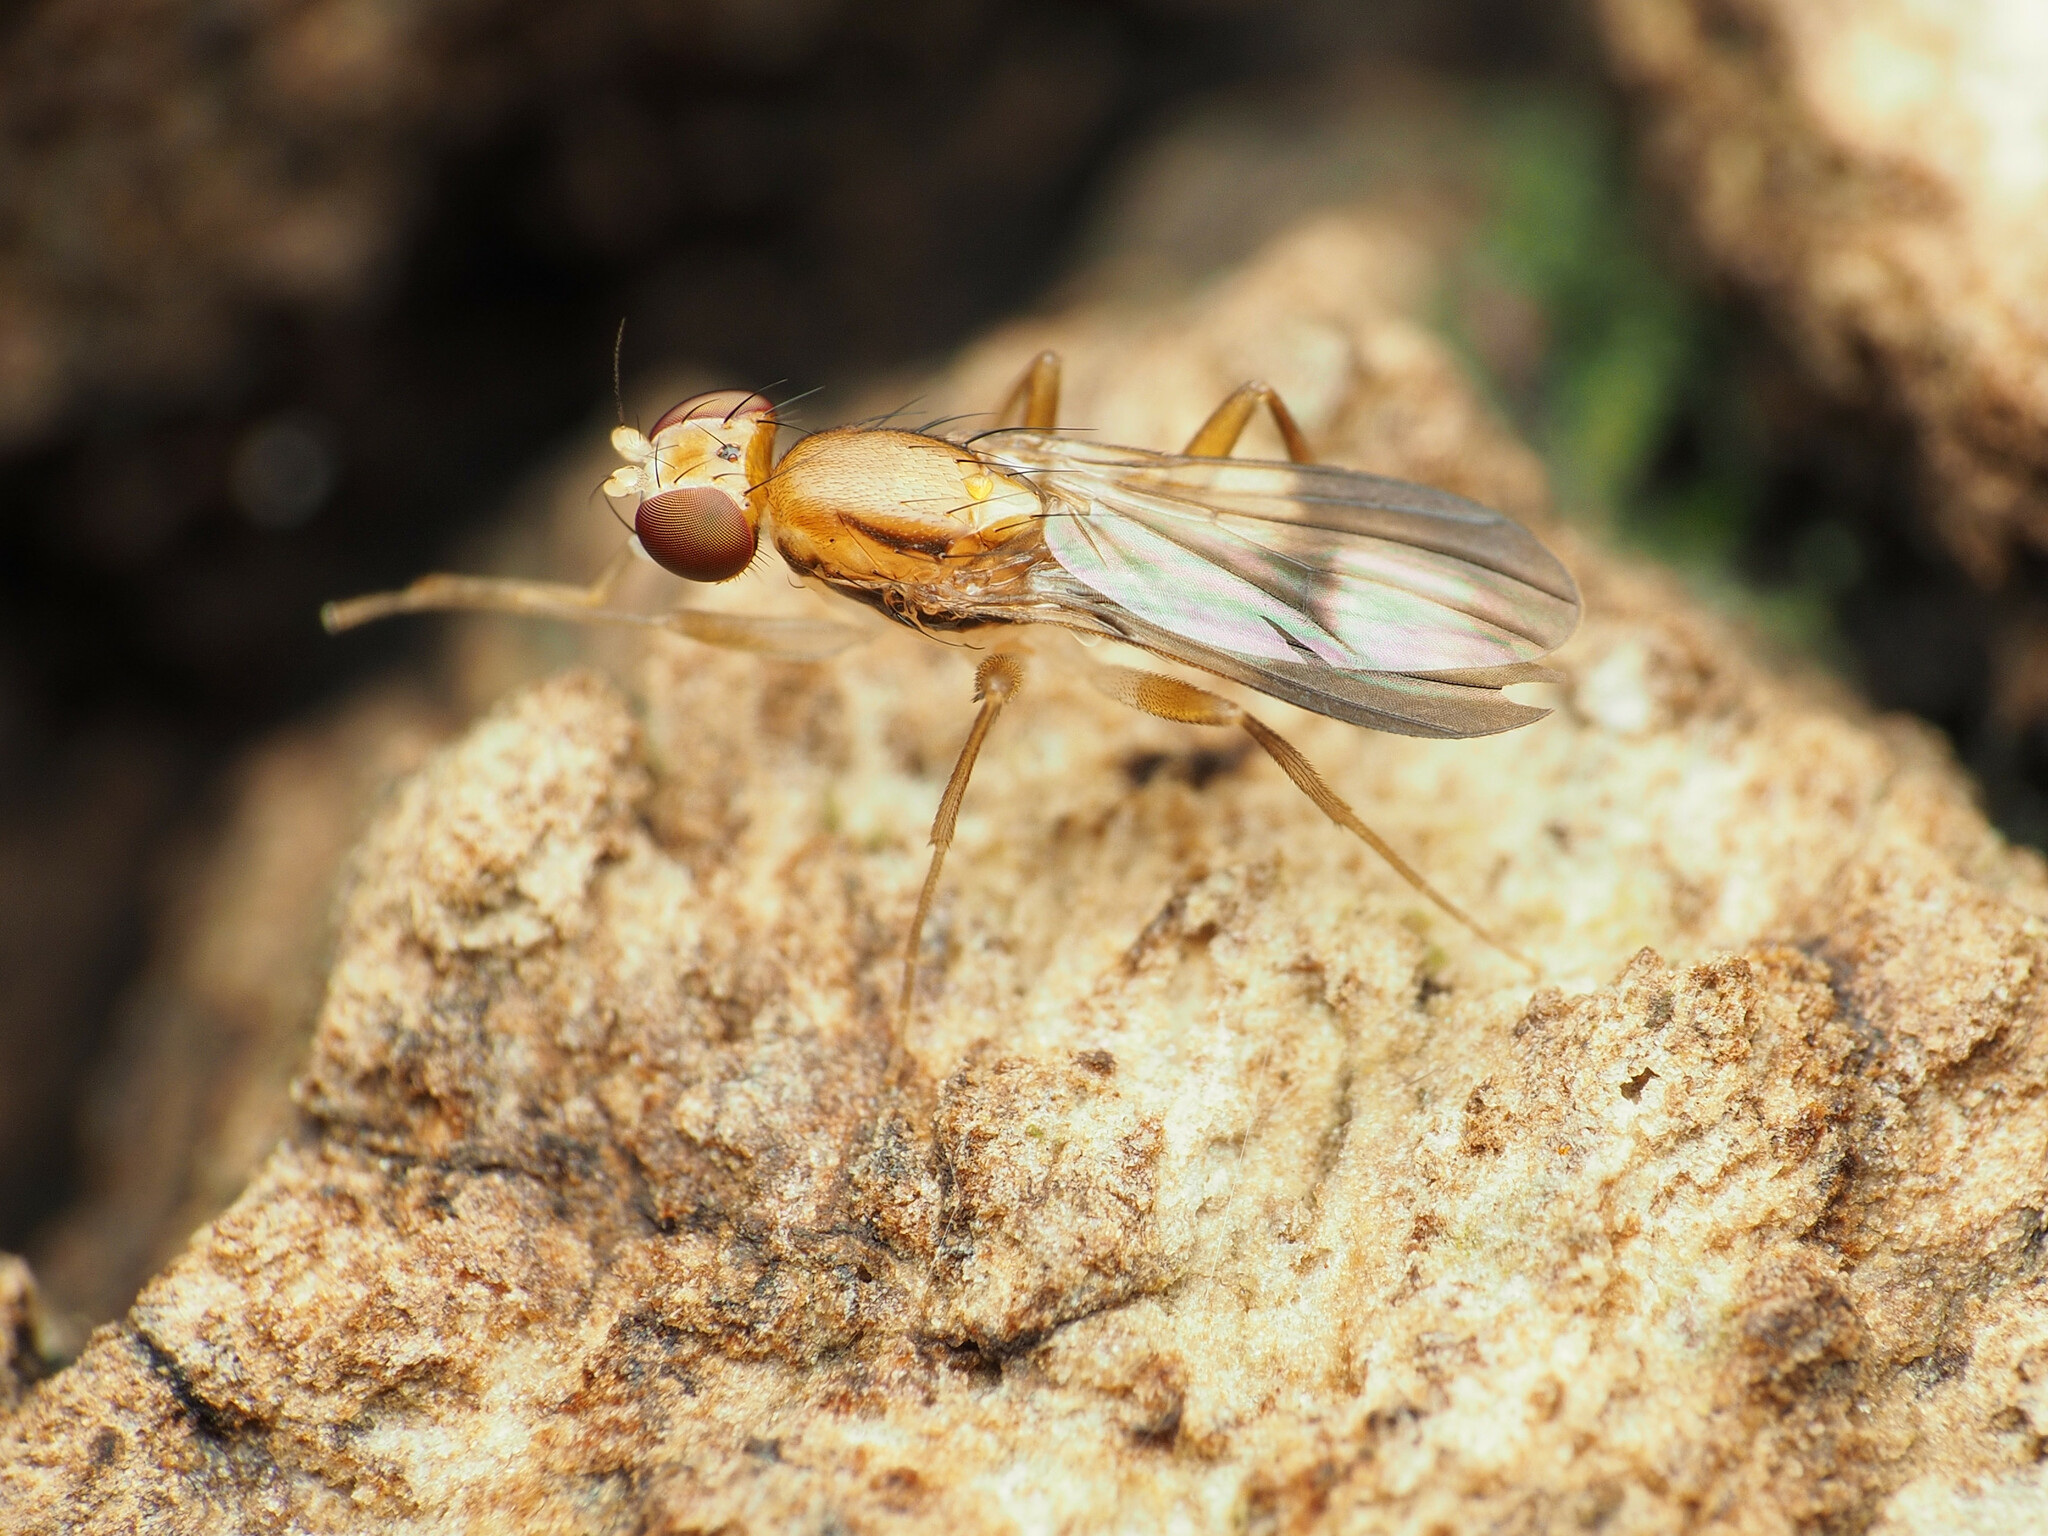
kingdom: Animalia
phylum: Arthropoda
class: Insecta
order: Diptera
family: Clusiidae
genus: Clusia
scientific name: Clusia czernyi
